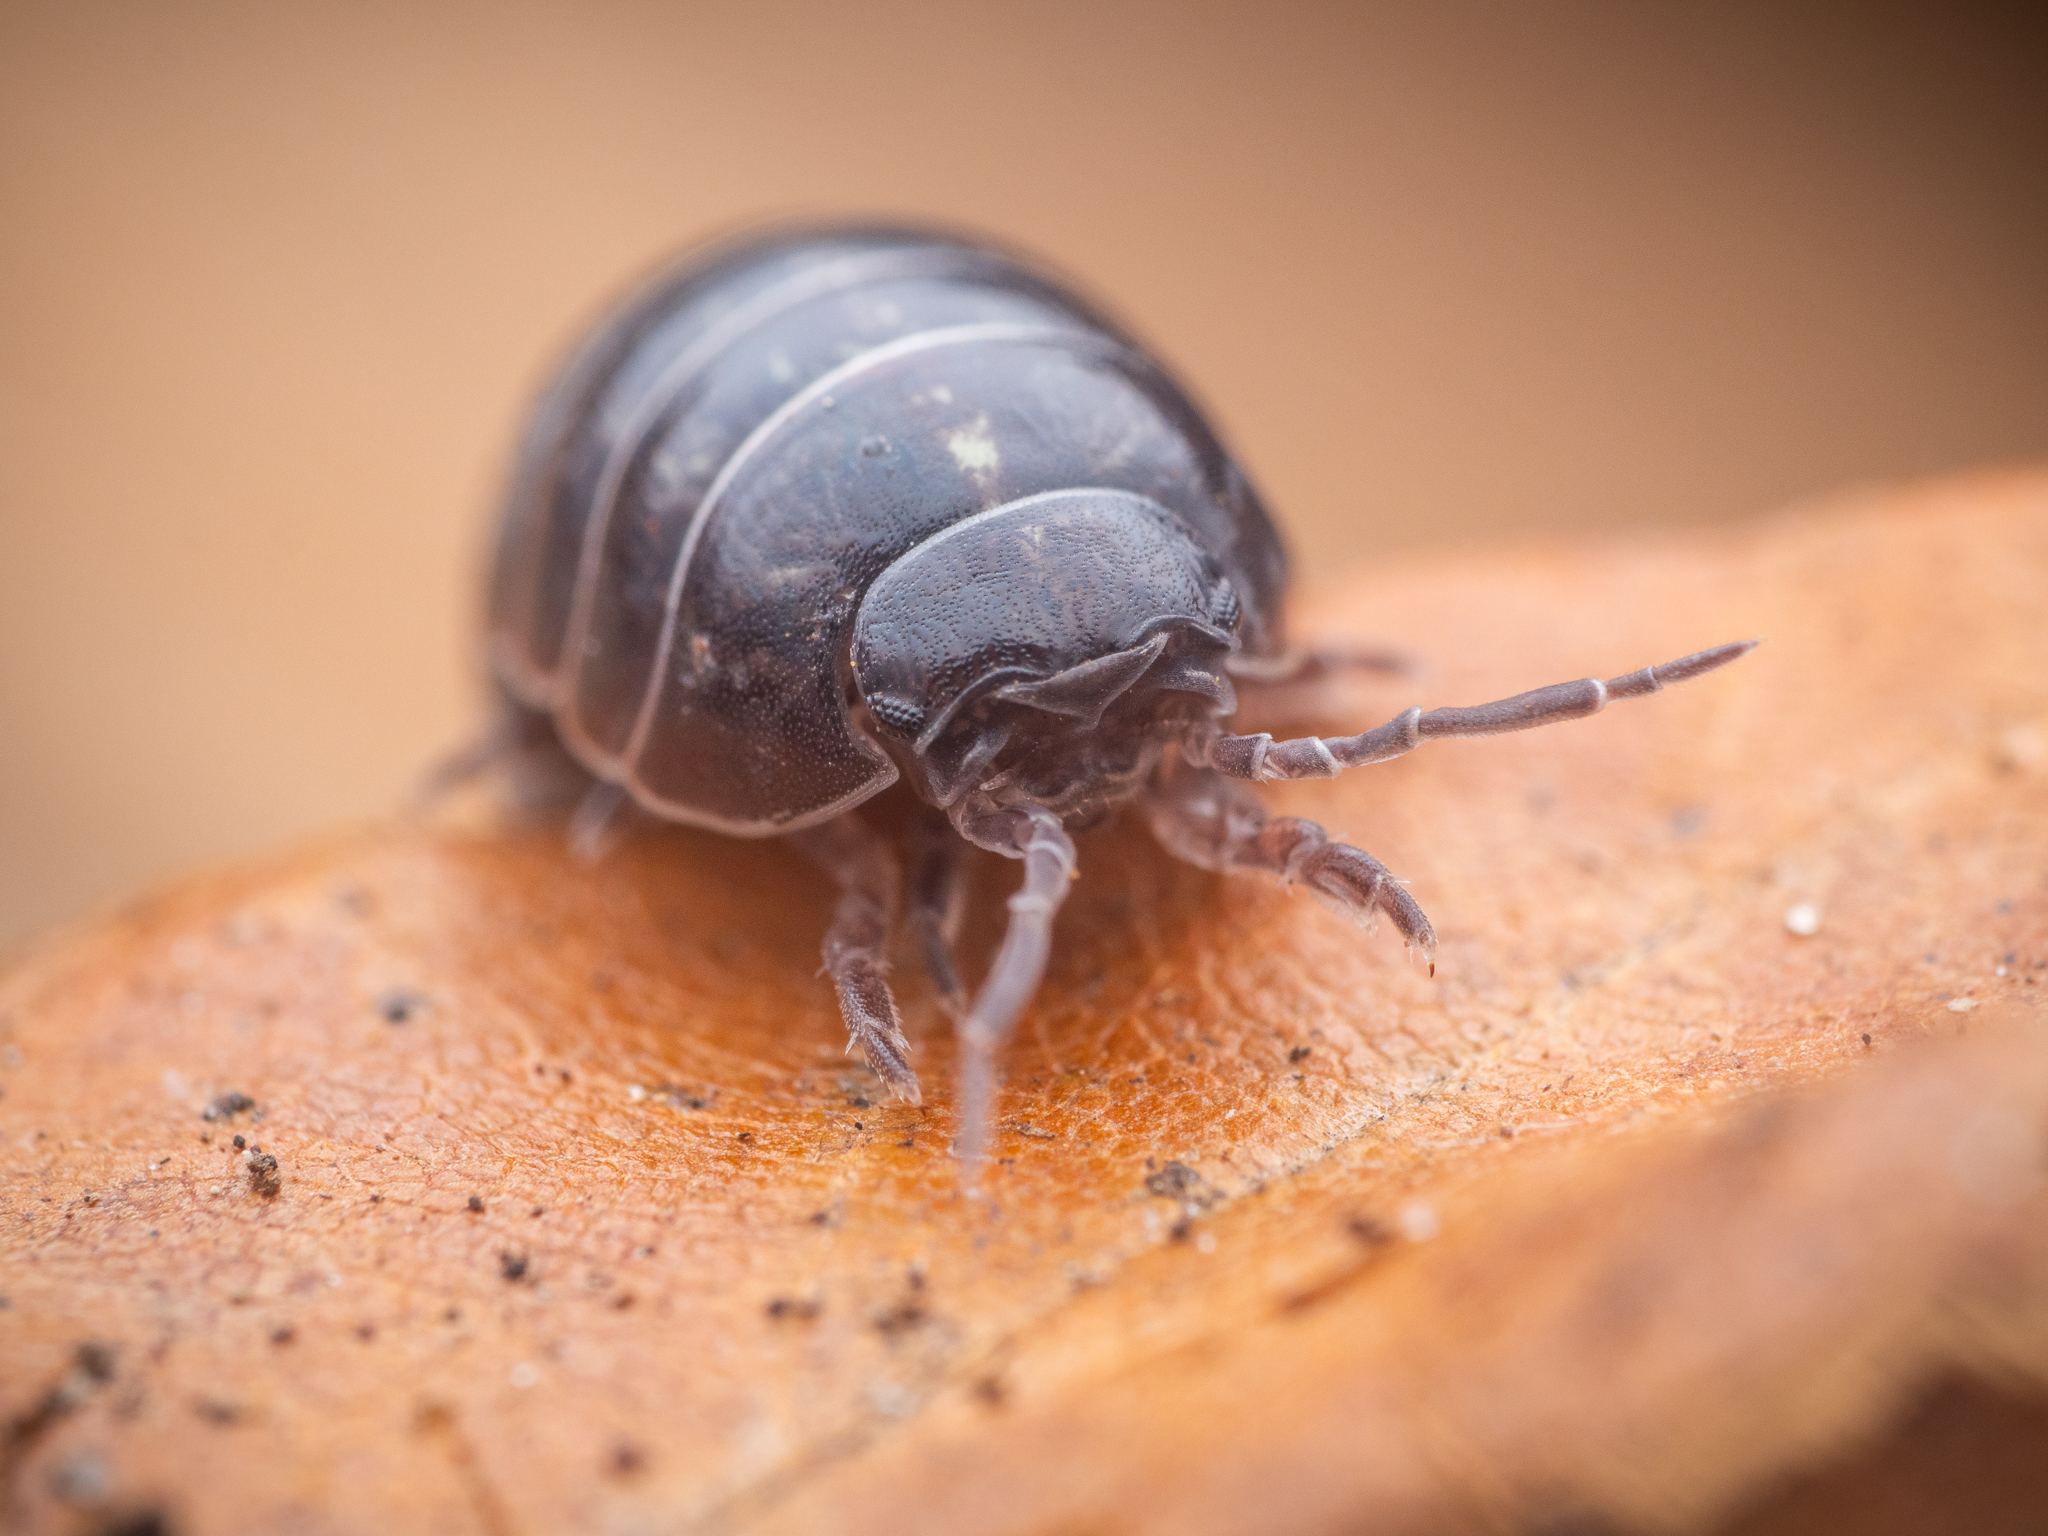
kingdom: Animalia
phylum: Arthropoda
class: Malacostraca
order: Isopoda
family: Armadillidiidae
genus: Armadillidium
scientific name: Armadillidium vulgare
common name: Common pill woodlouse
